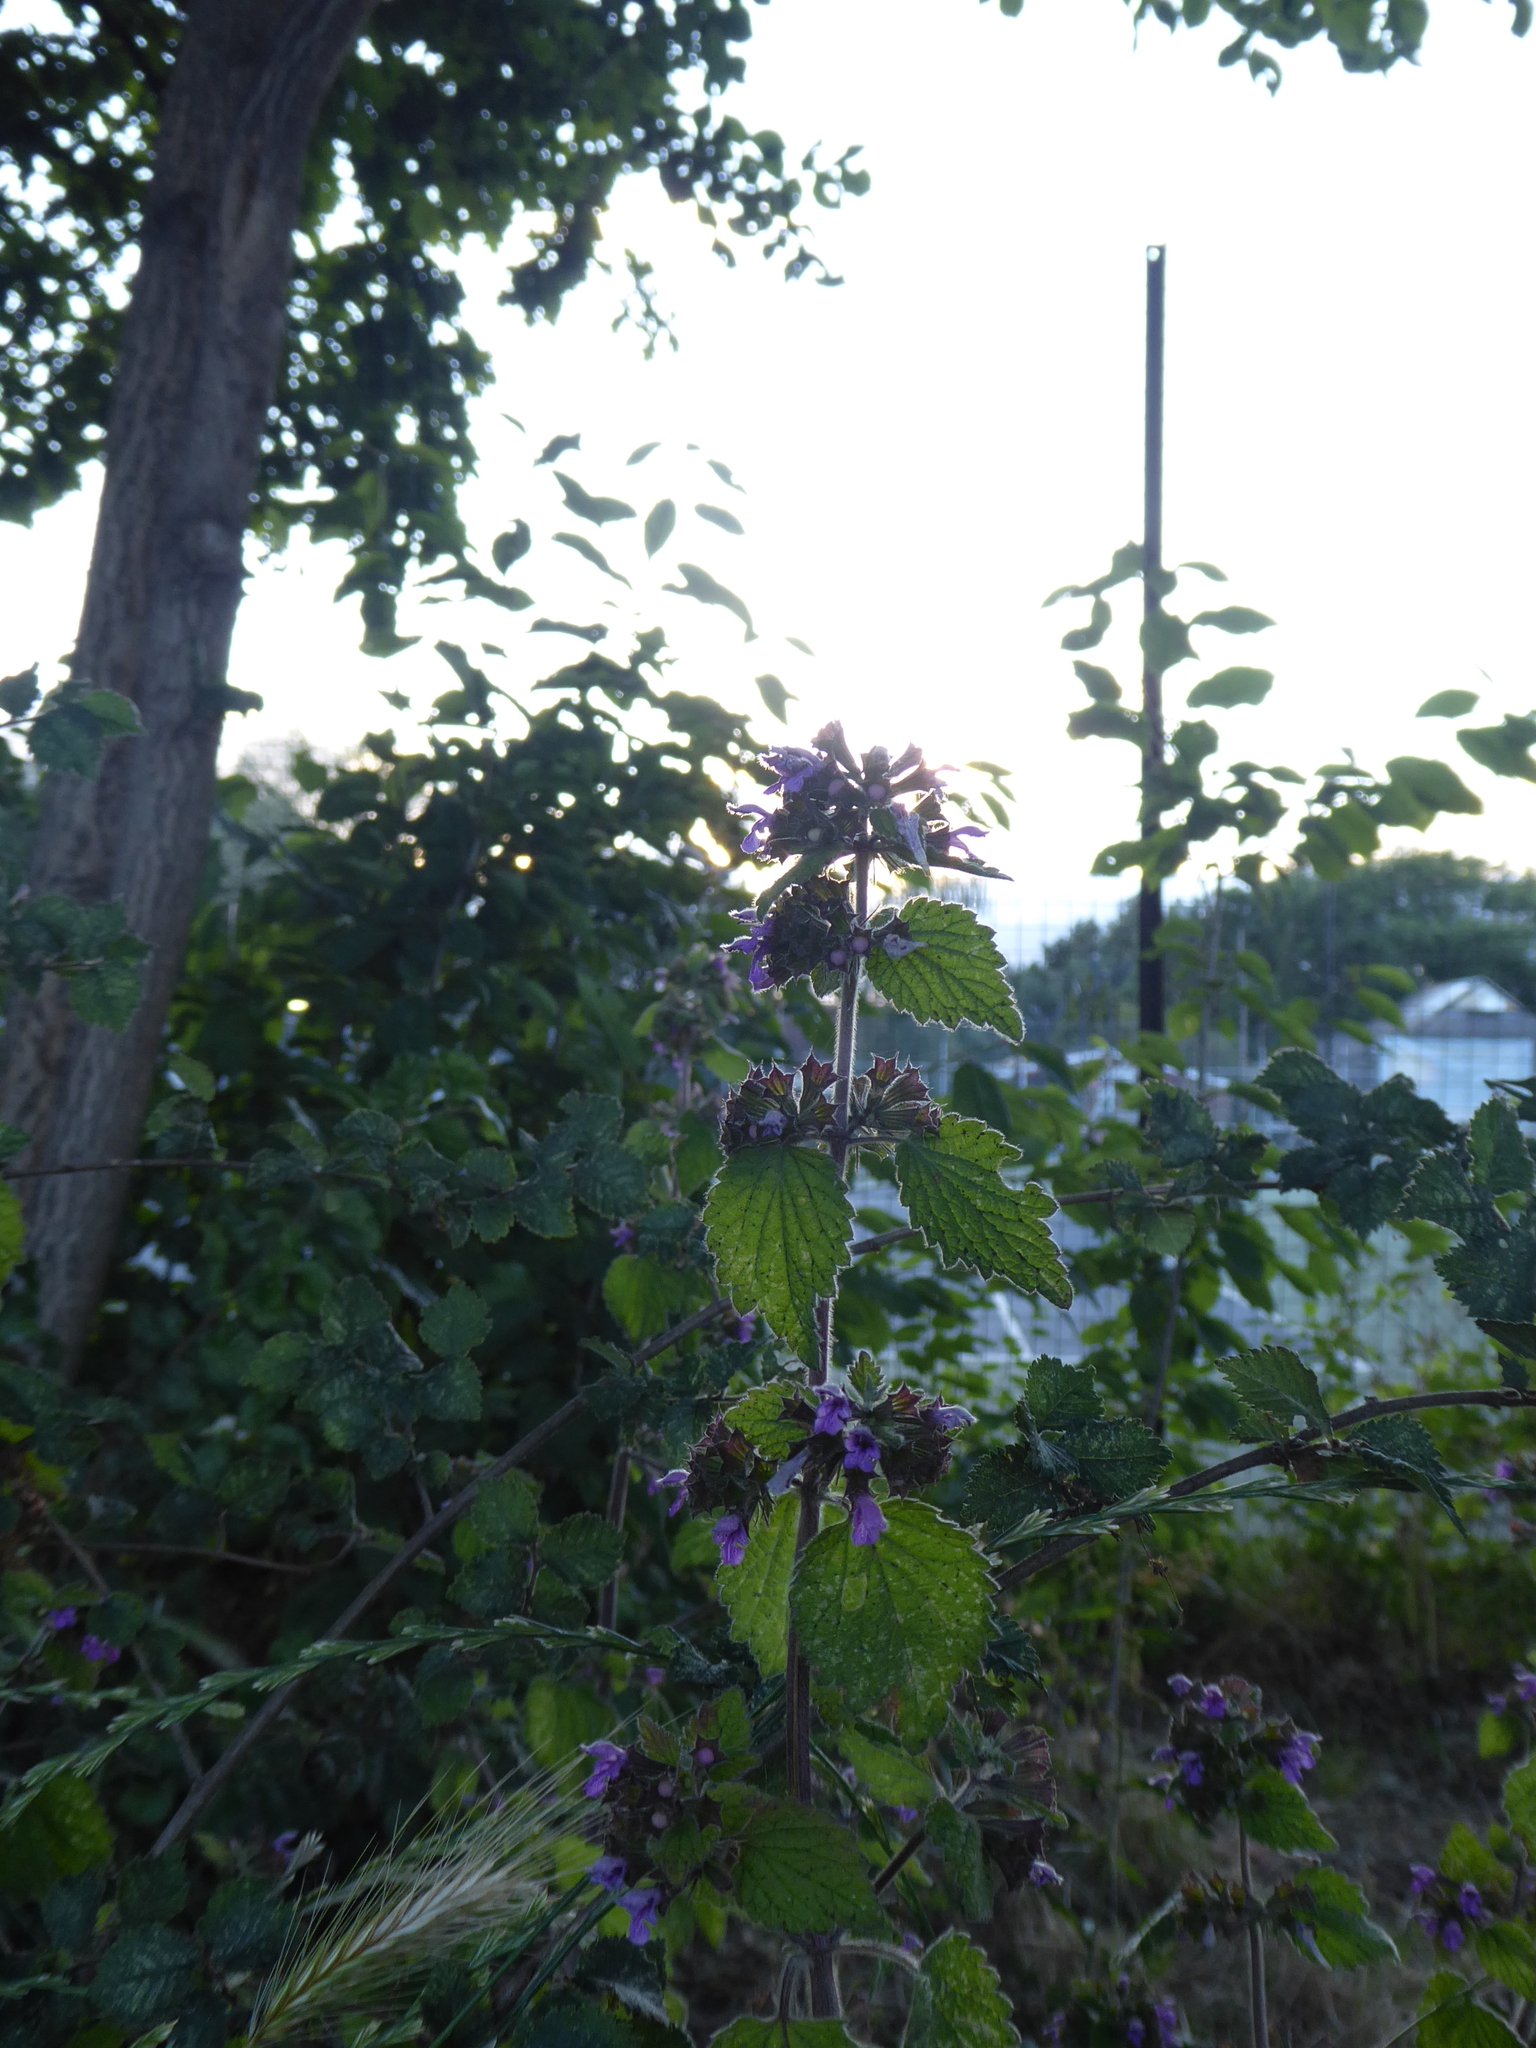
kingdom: Plantae
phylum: Tracheophyta
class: Magnoliopsida
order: Lamiales
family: Lamiaceae
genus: Ballota
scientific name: Ballota nigra
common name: Black horehound
